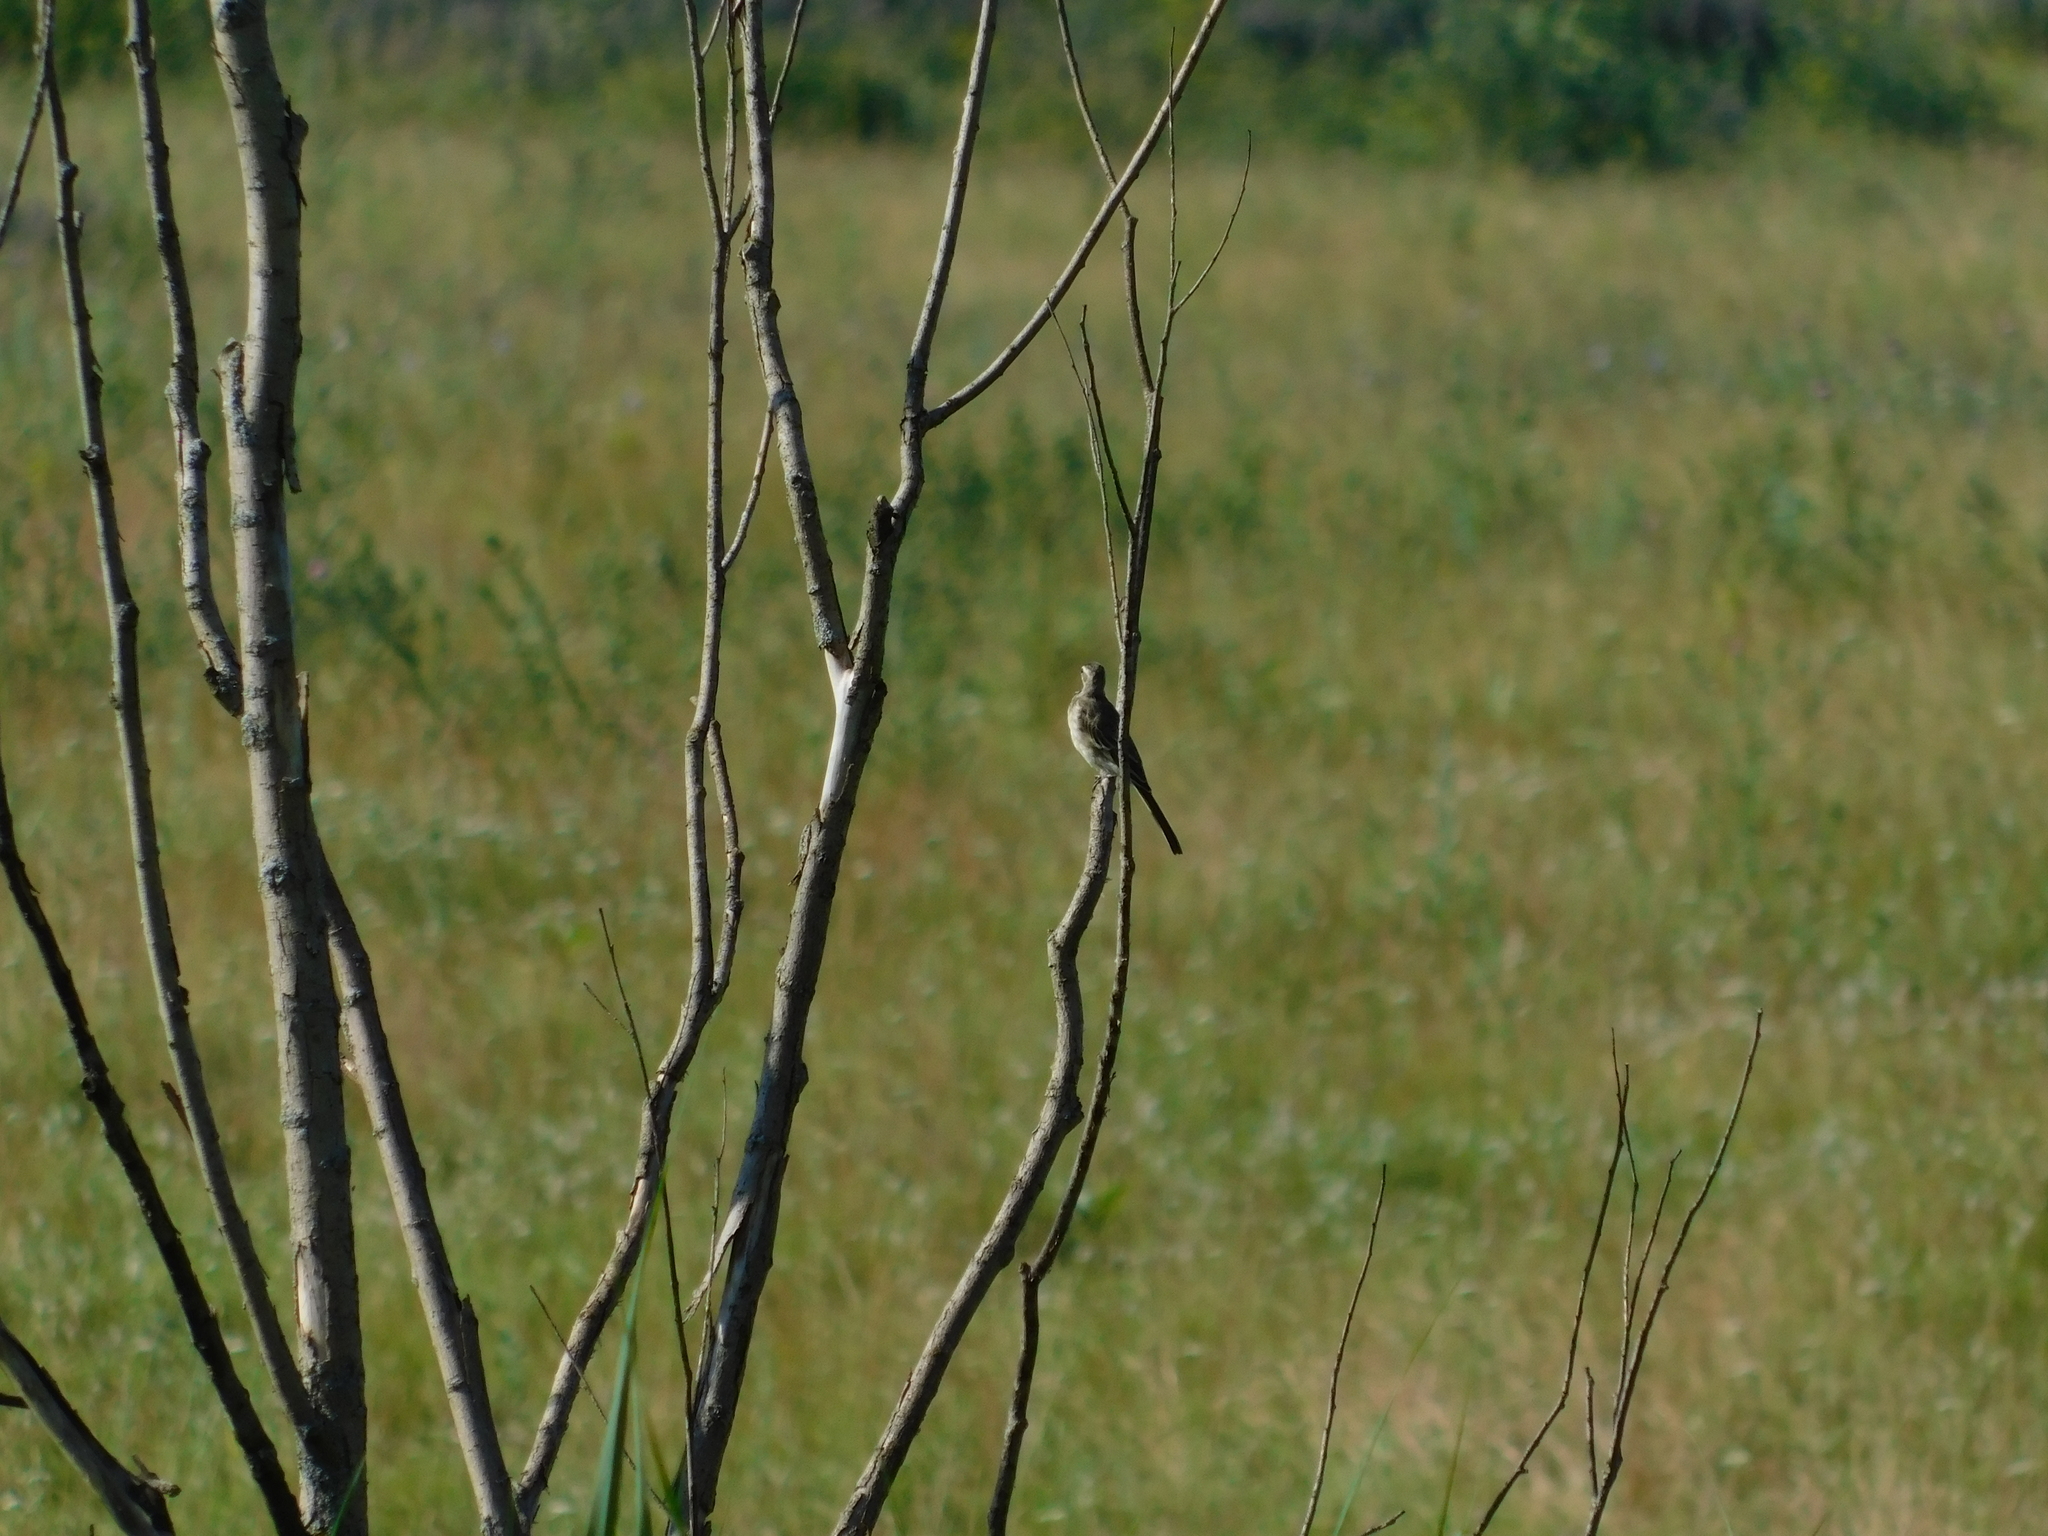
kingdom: Animalia
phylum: Chordata
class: Aves
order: Passeriformes
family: Motacillidae
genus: Motacilla
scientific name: Motacilla alba
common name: White wagtail
